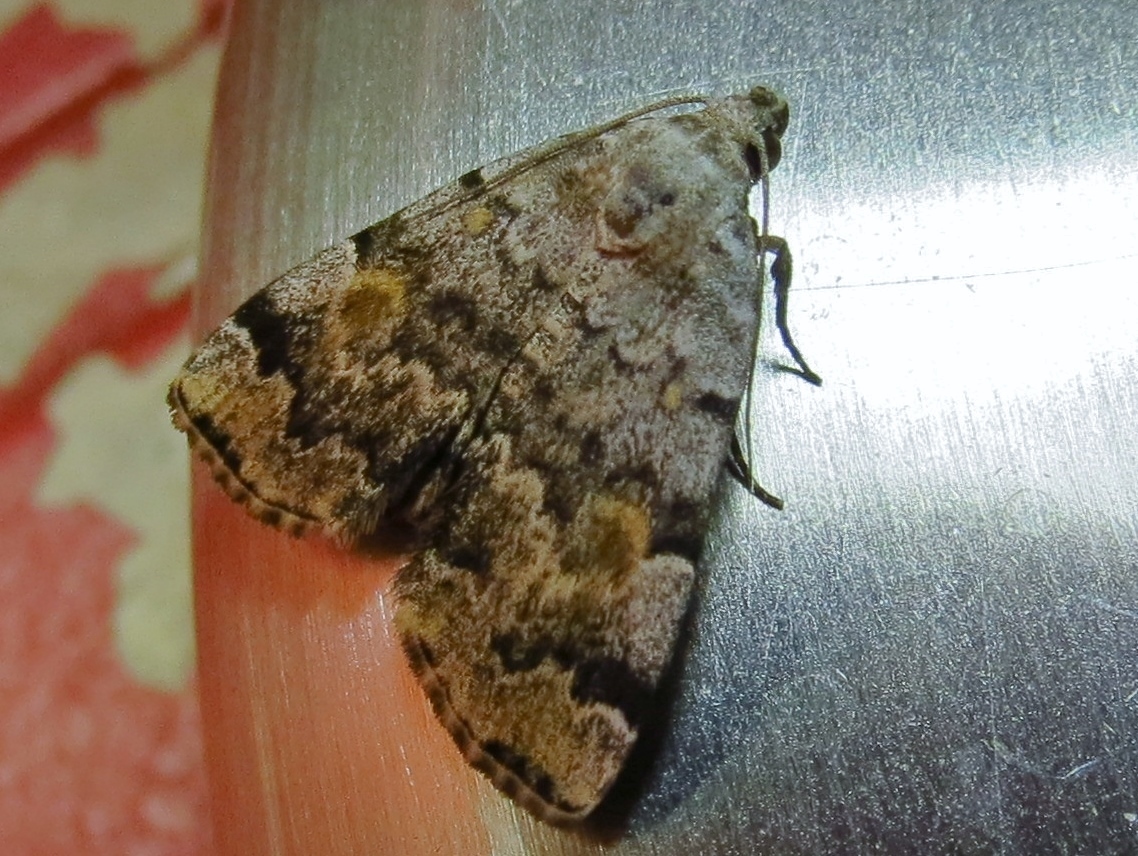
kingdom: Animalia
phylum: Arthropoda
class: Insecta
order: Lepidoptera
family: Erebidae
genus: Idia
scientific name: Idia americalis
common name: American idia moth
